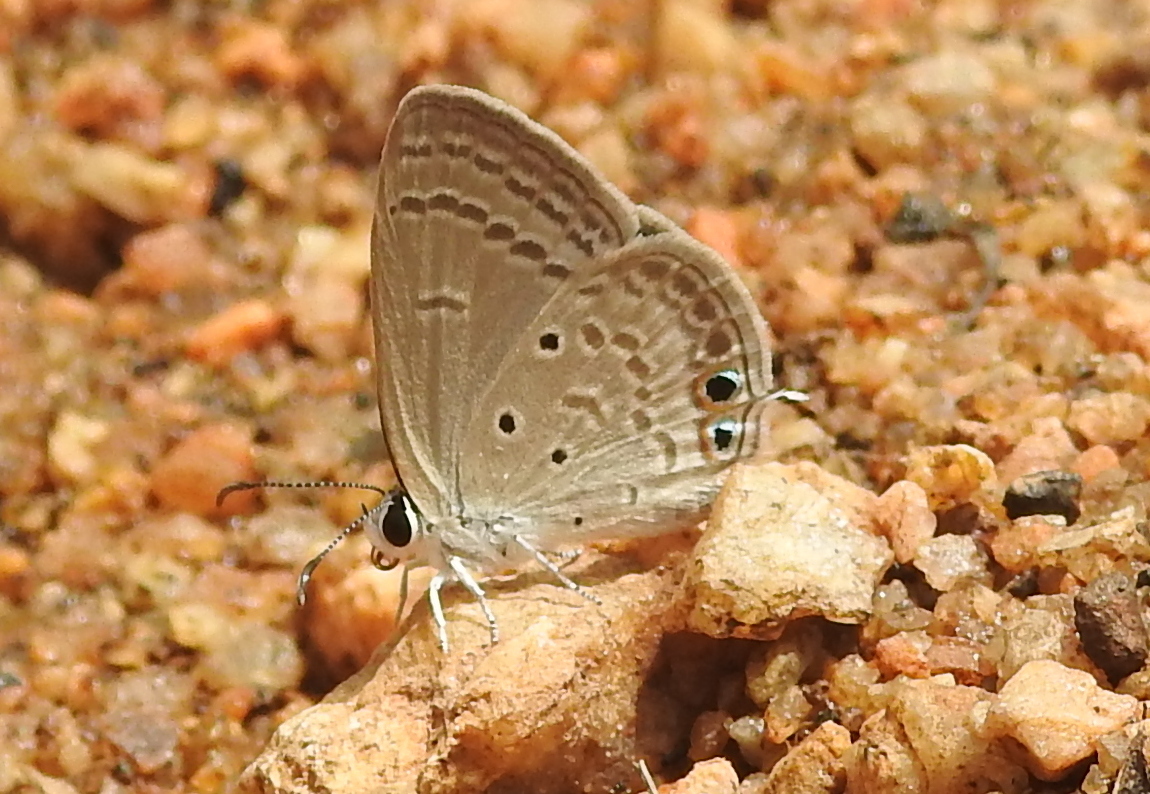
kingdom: Animalia
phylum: Arthropoda
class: Insecta
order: Lepidoptera
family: Lycaenidae
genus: Euchrysops
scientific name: Euchrysops cnejus
